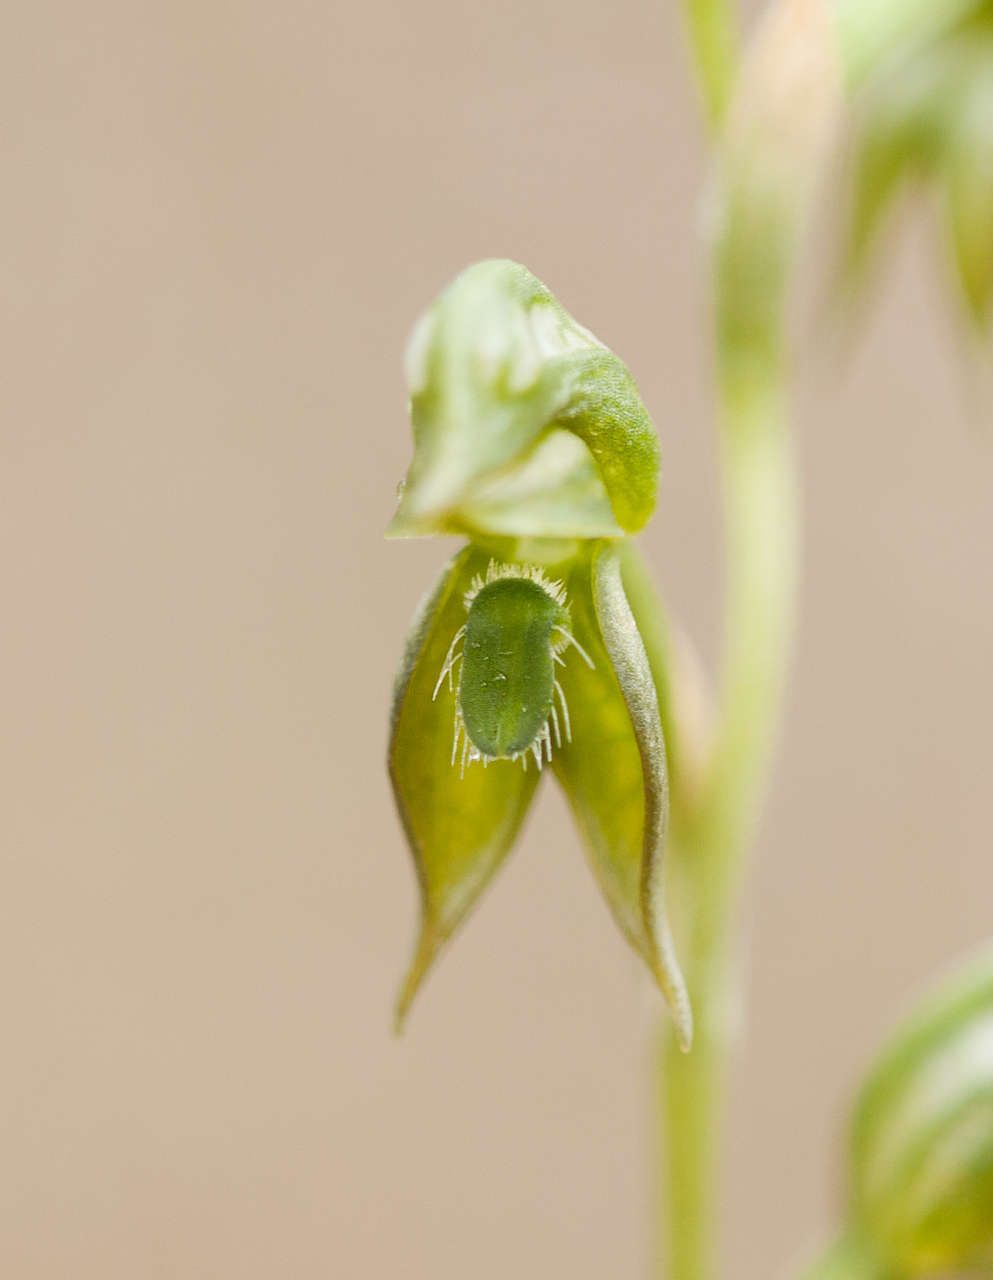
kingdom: Plantae
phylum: Tracheophyta
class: Liliopsida
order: Asparagales
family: Orchidaceae
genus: Pterostylis
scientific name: Pterostylis aciculiformis
